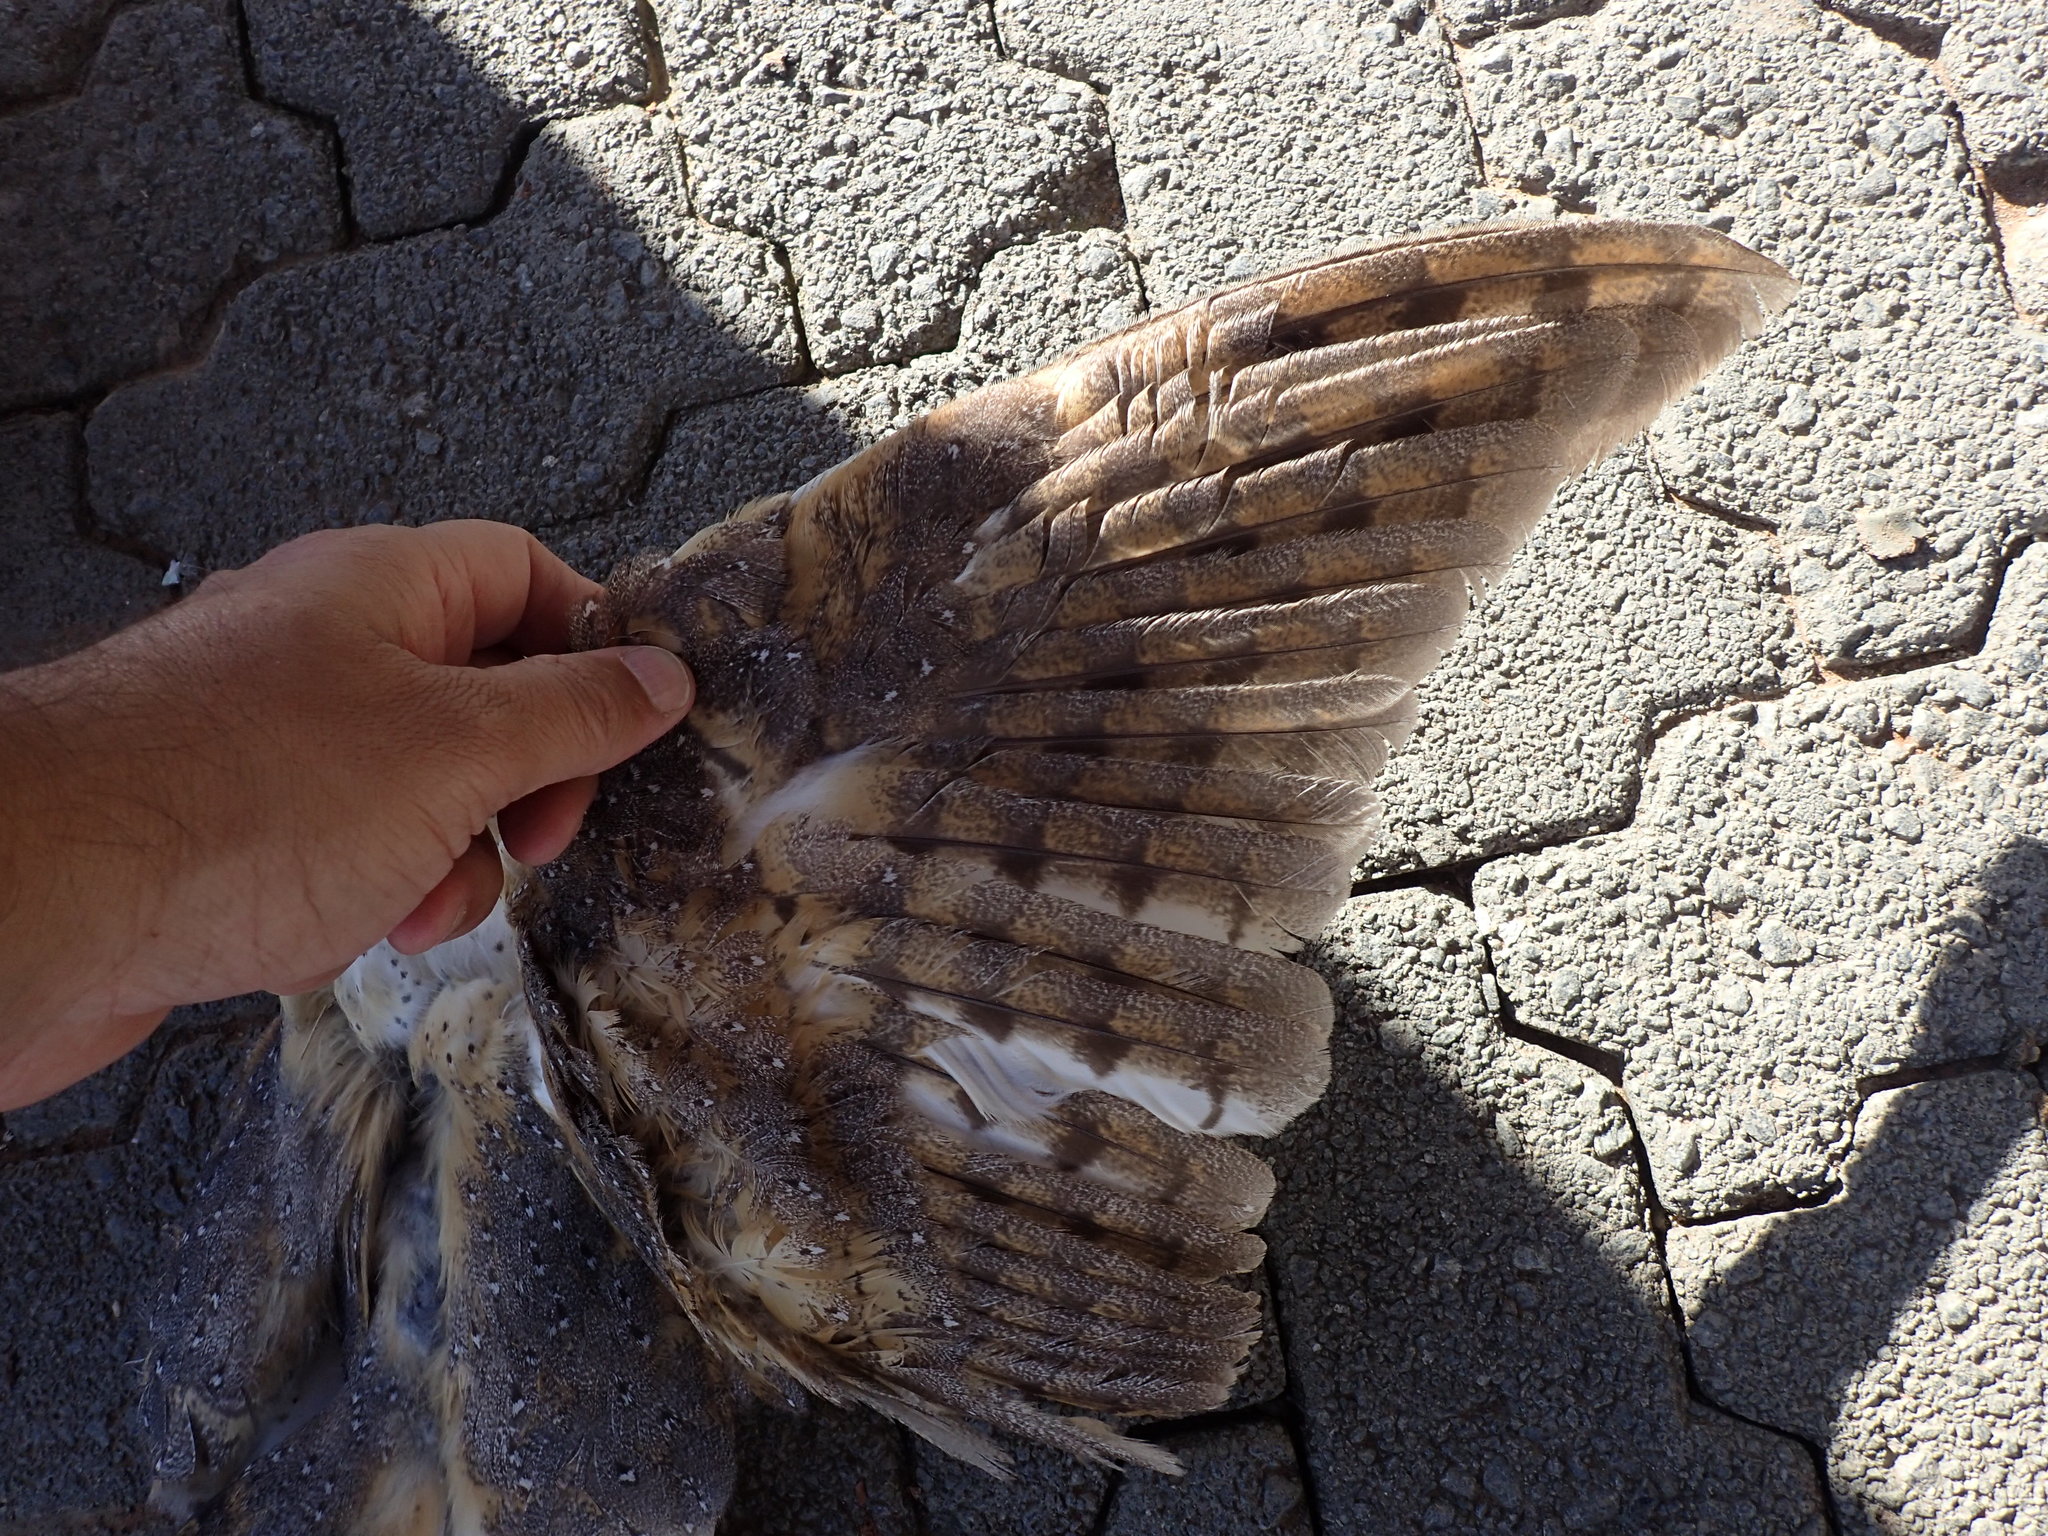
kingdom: Animalia
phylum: Chordata
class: Aves
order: Strigiformes
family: Tytonidae
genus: Tyto
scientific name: Tyto alba
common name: Barn owl
